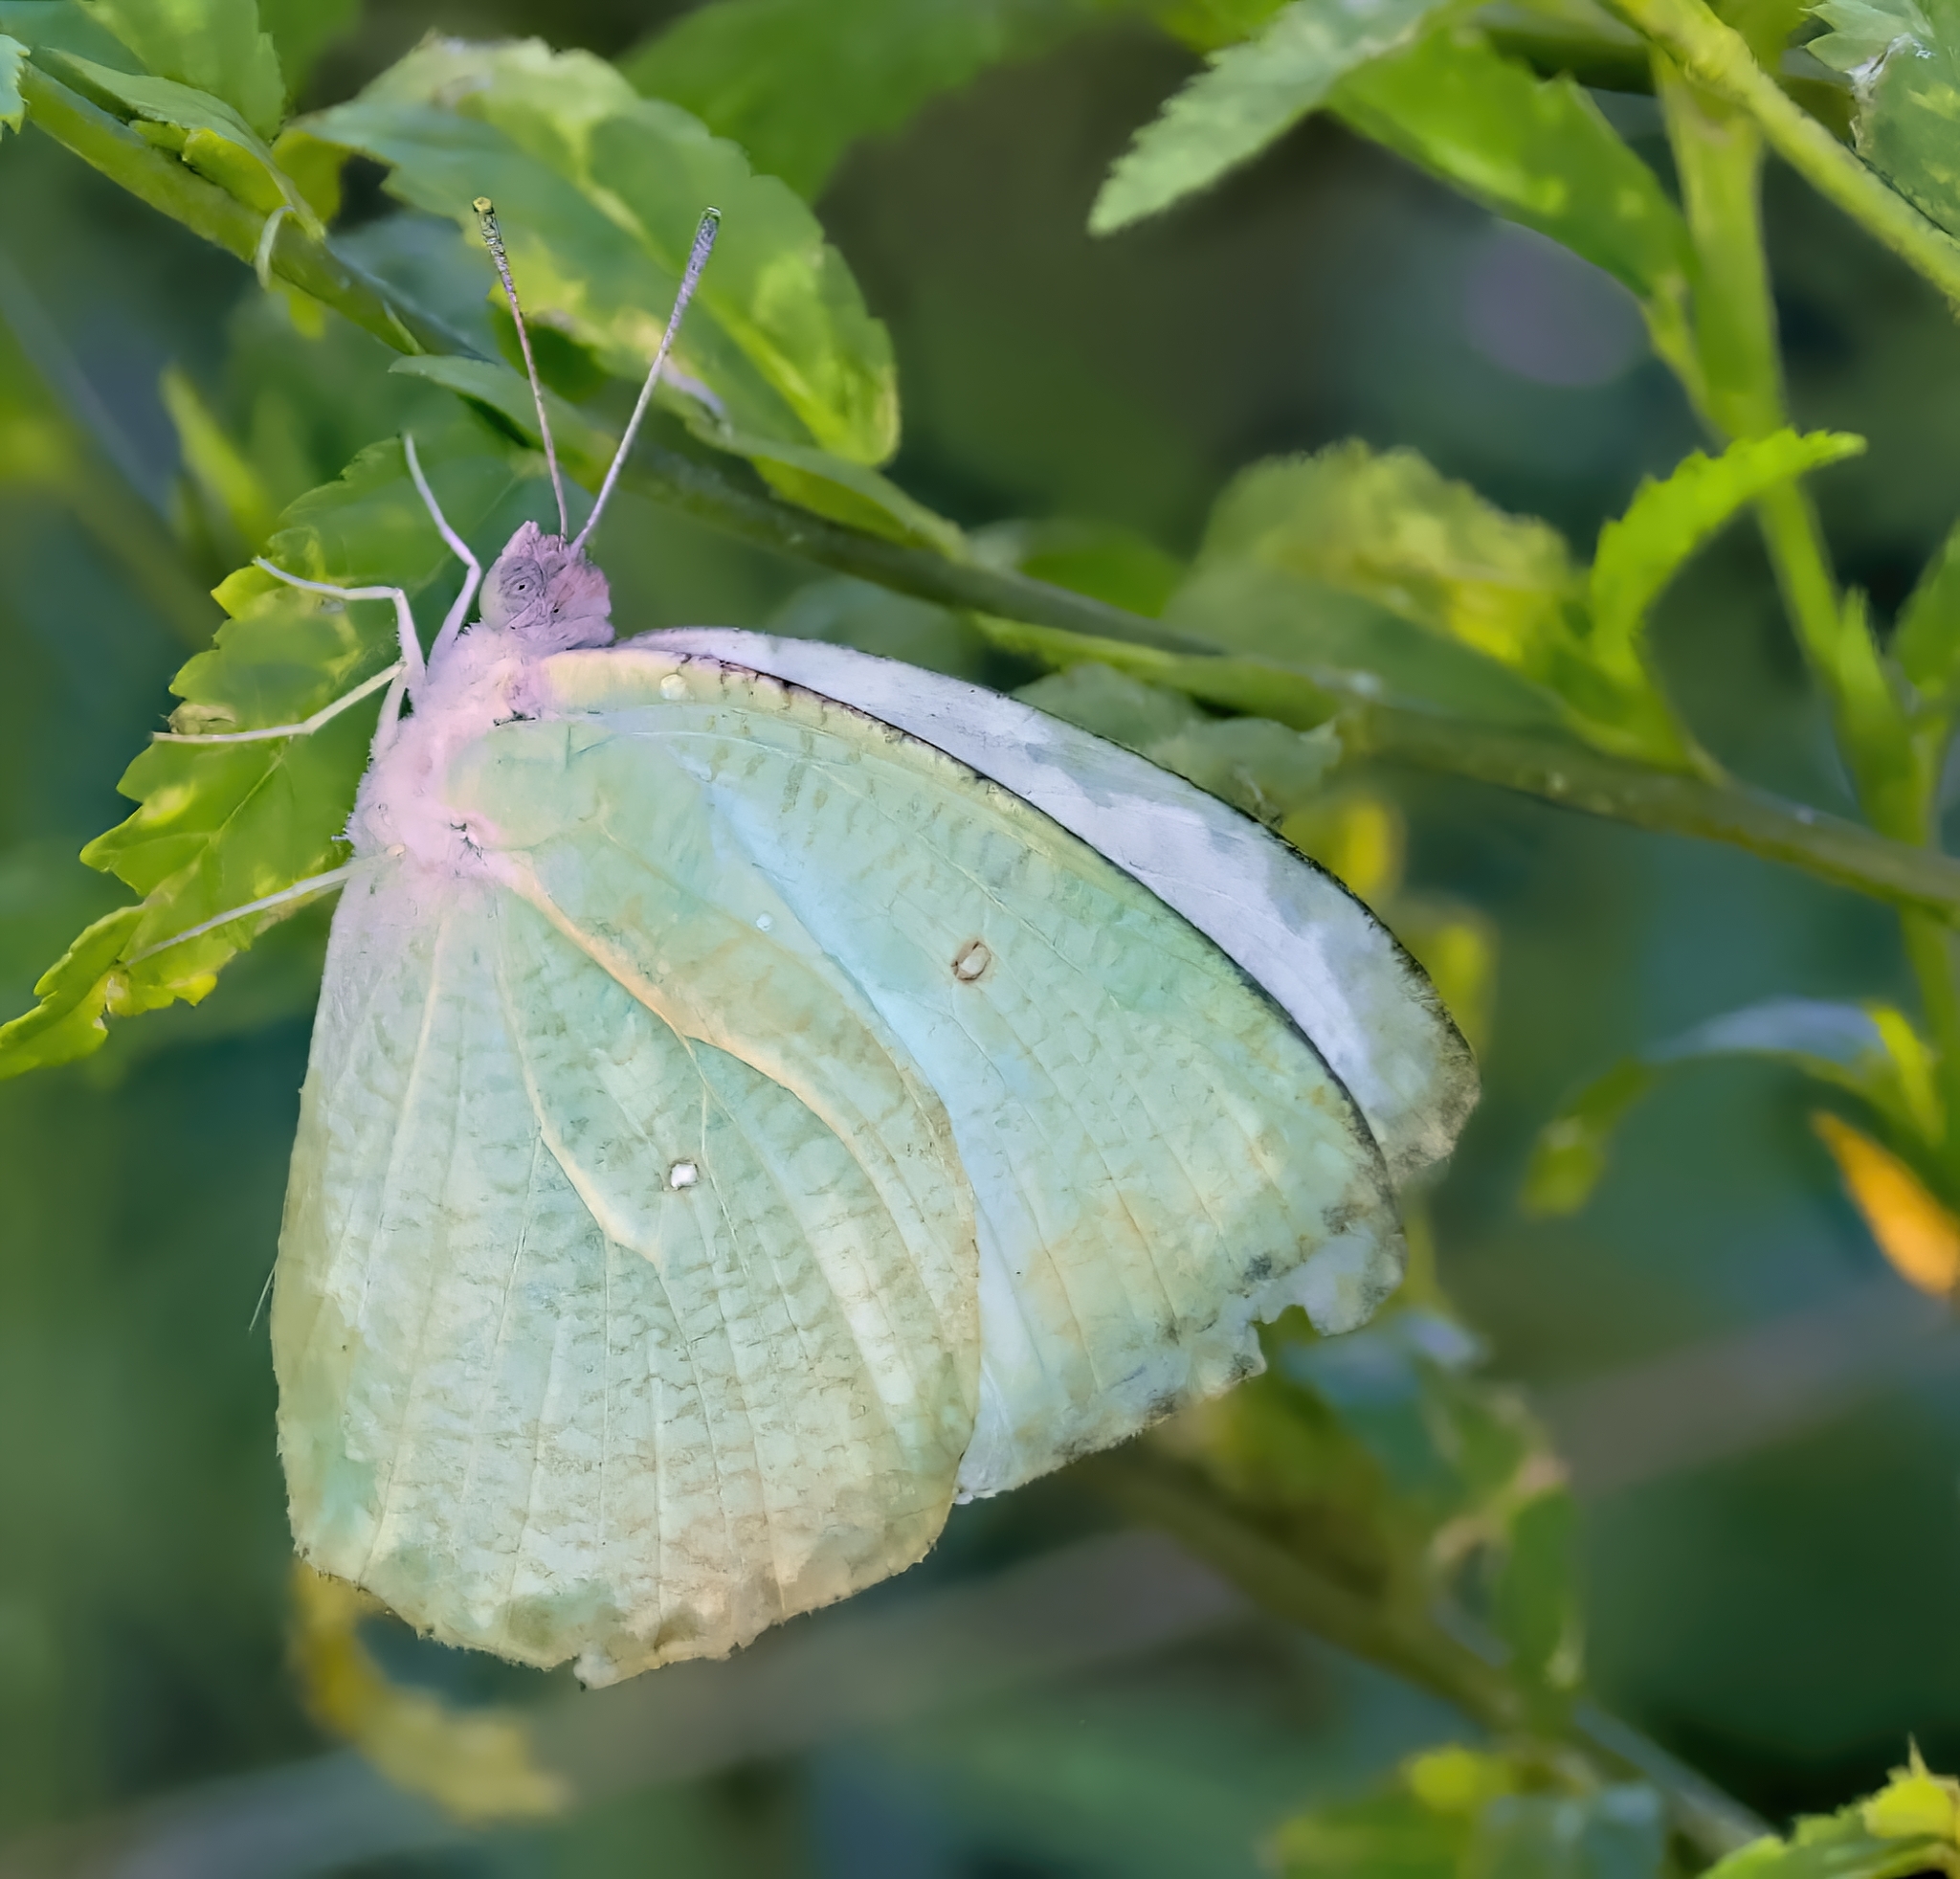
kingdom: Animalia
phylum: Arthropoda
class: Insecta
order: Lepidoptera
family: Pieridae
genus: Catopsilia
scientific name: Catopsilia pyranthe
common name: Mottled emigrant
